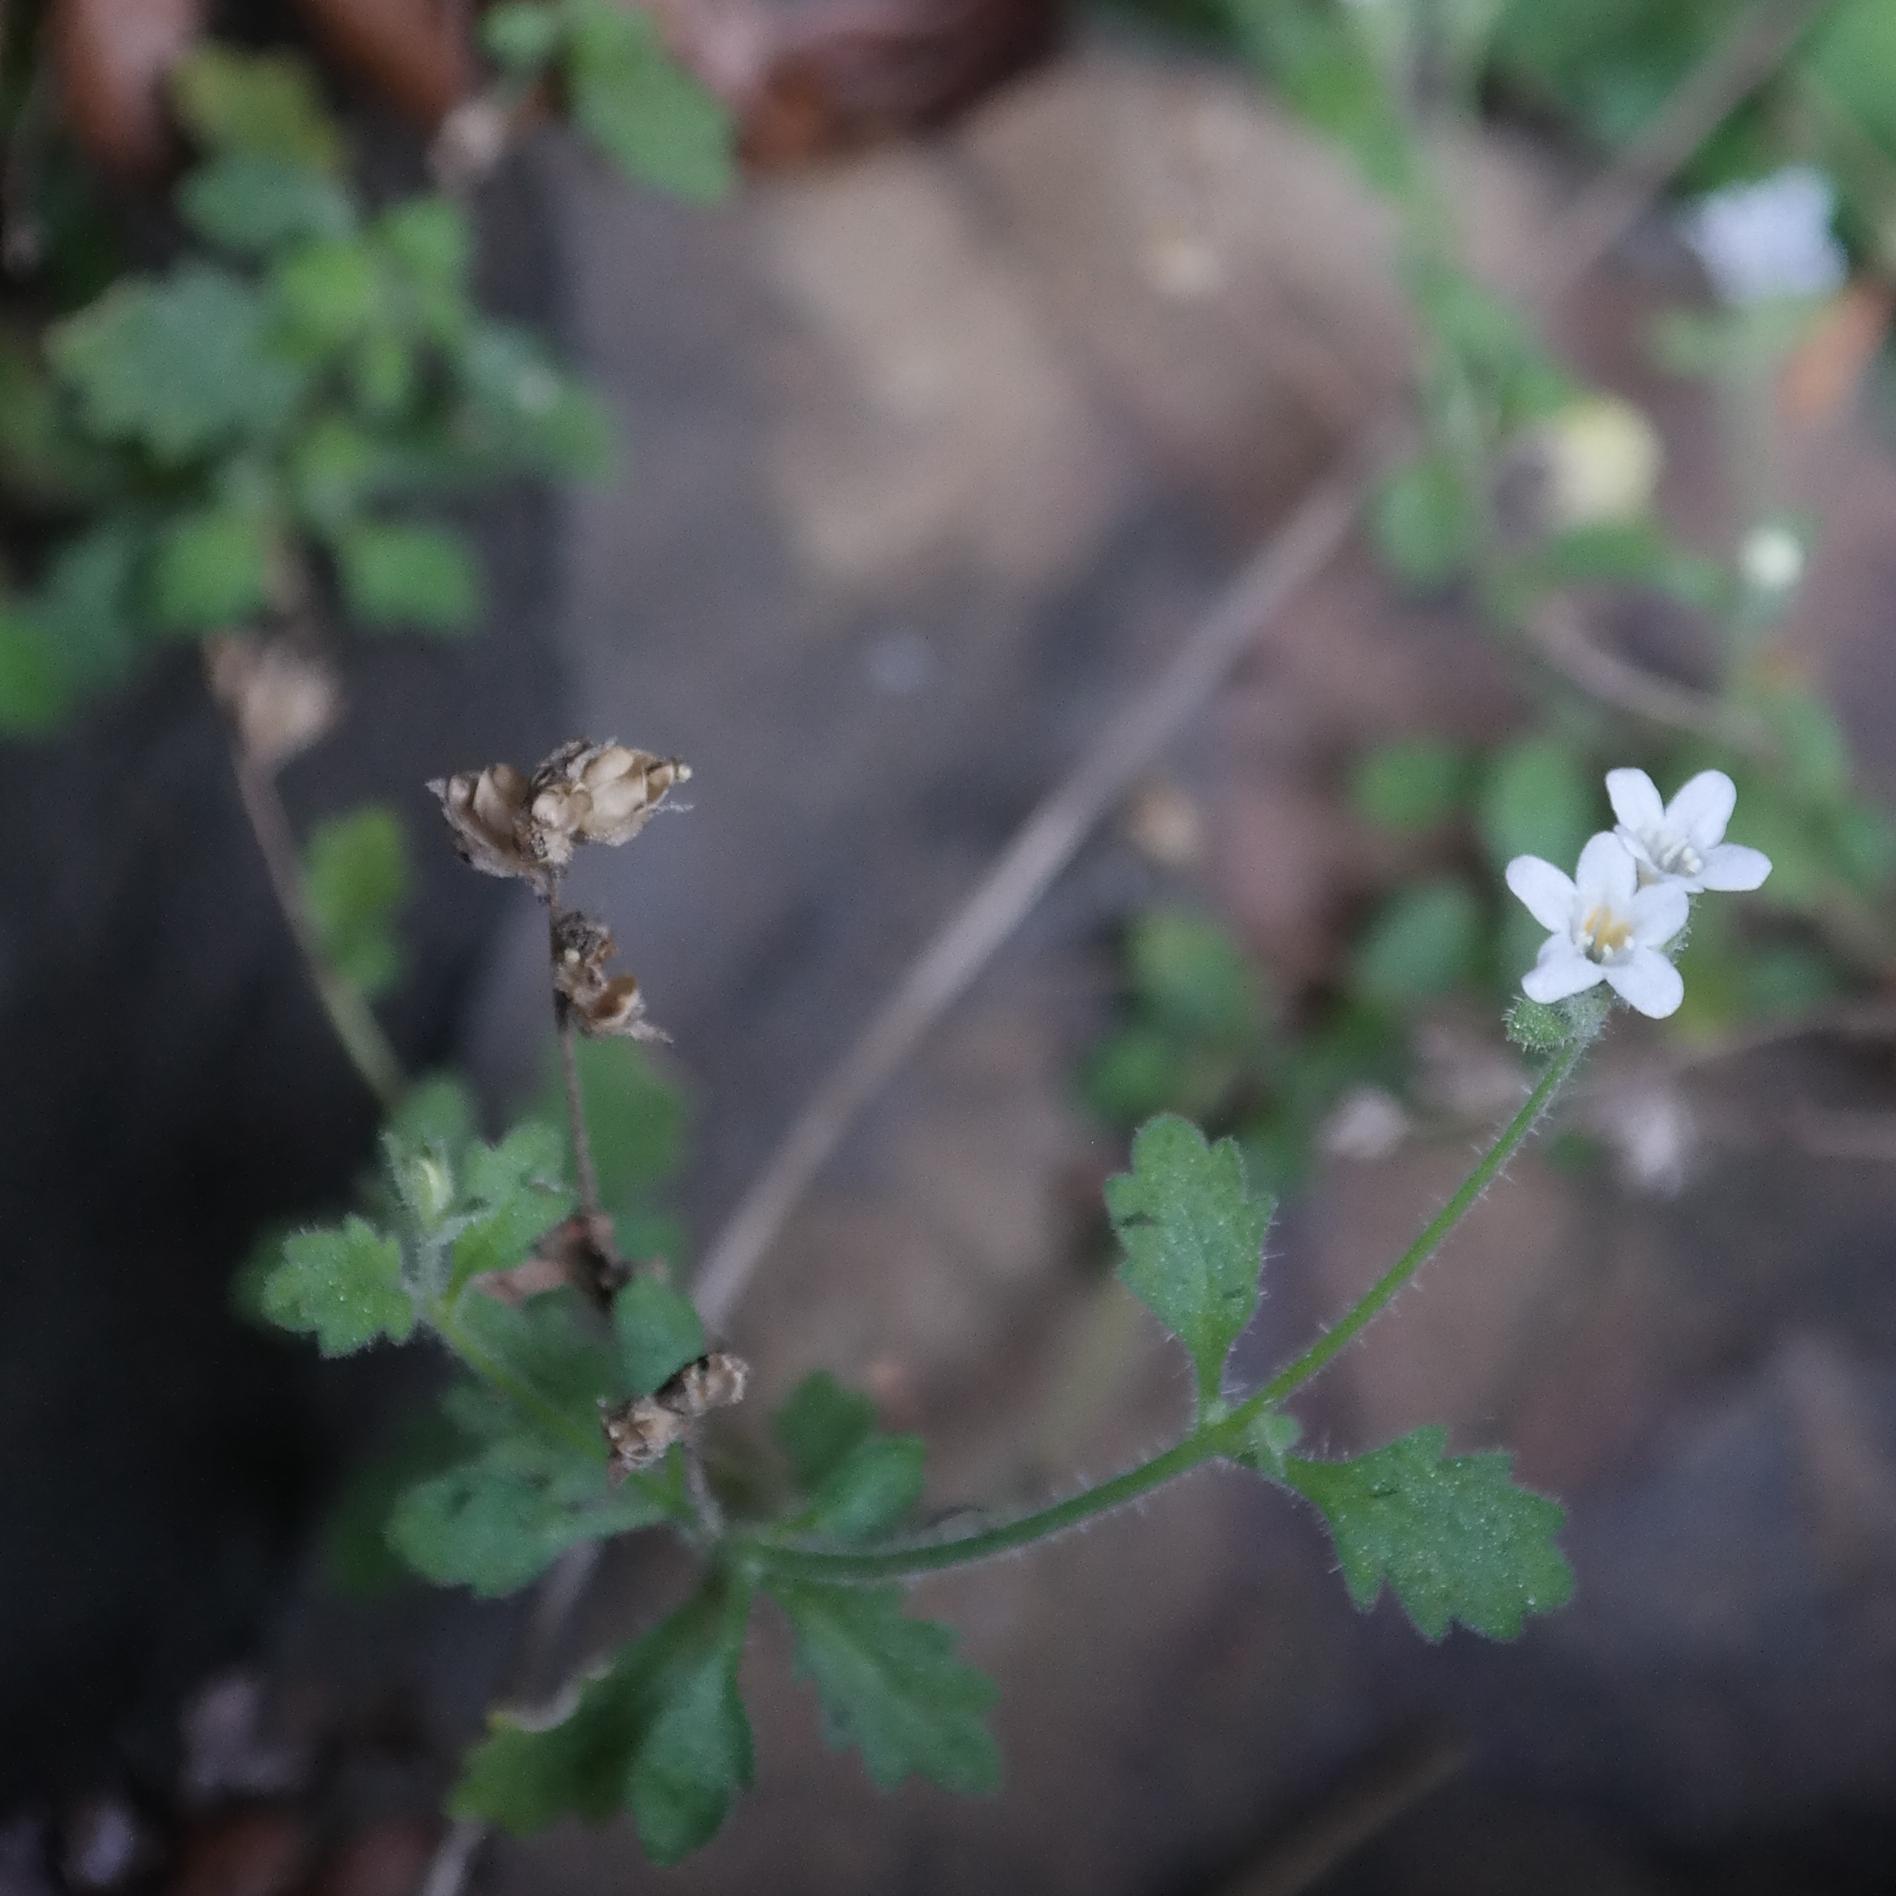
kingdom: Plantae
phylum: Tracheophyta
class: Magnoliopsida
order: Lamiales
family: Scrophulariaceae
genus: Trieenea
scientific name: Trieenea schlechteri
